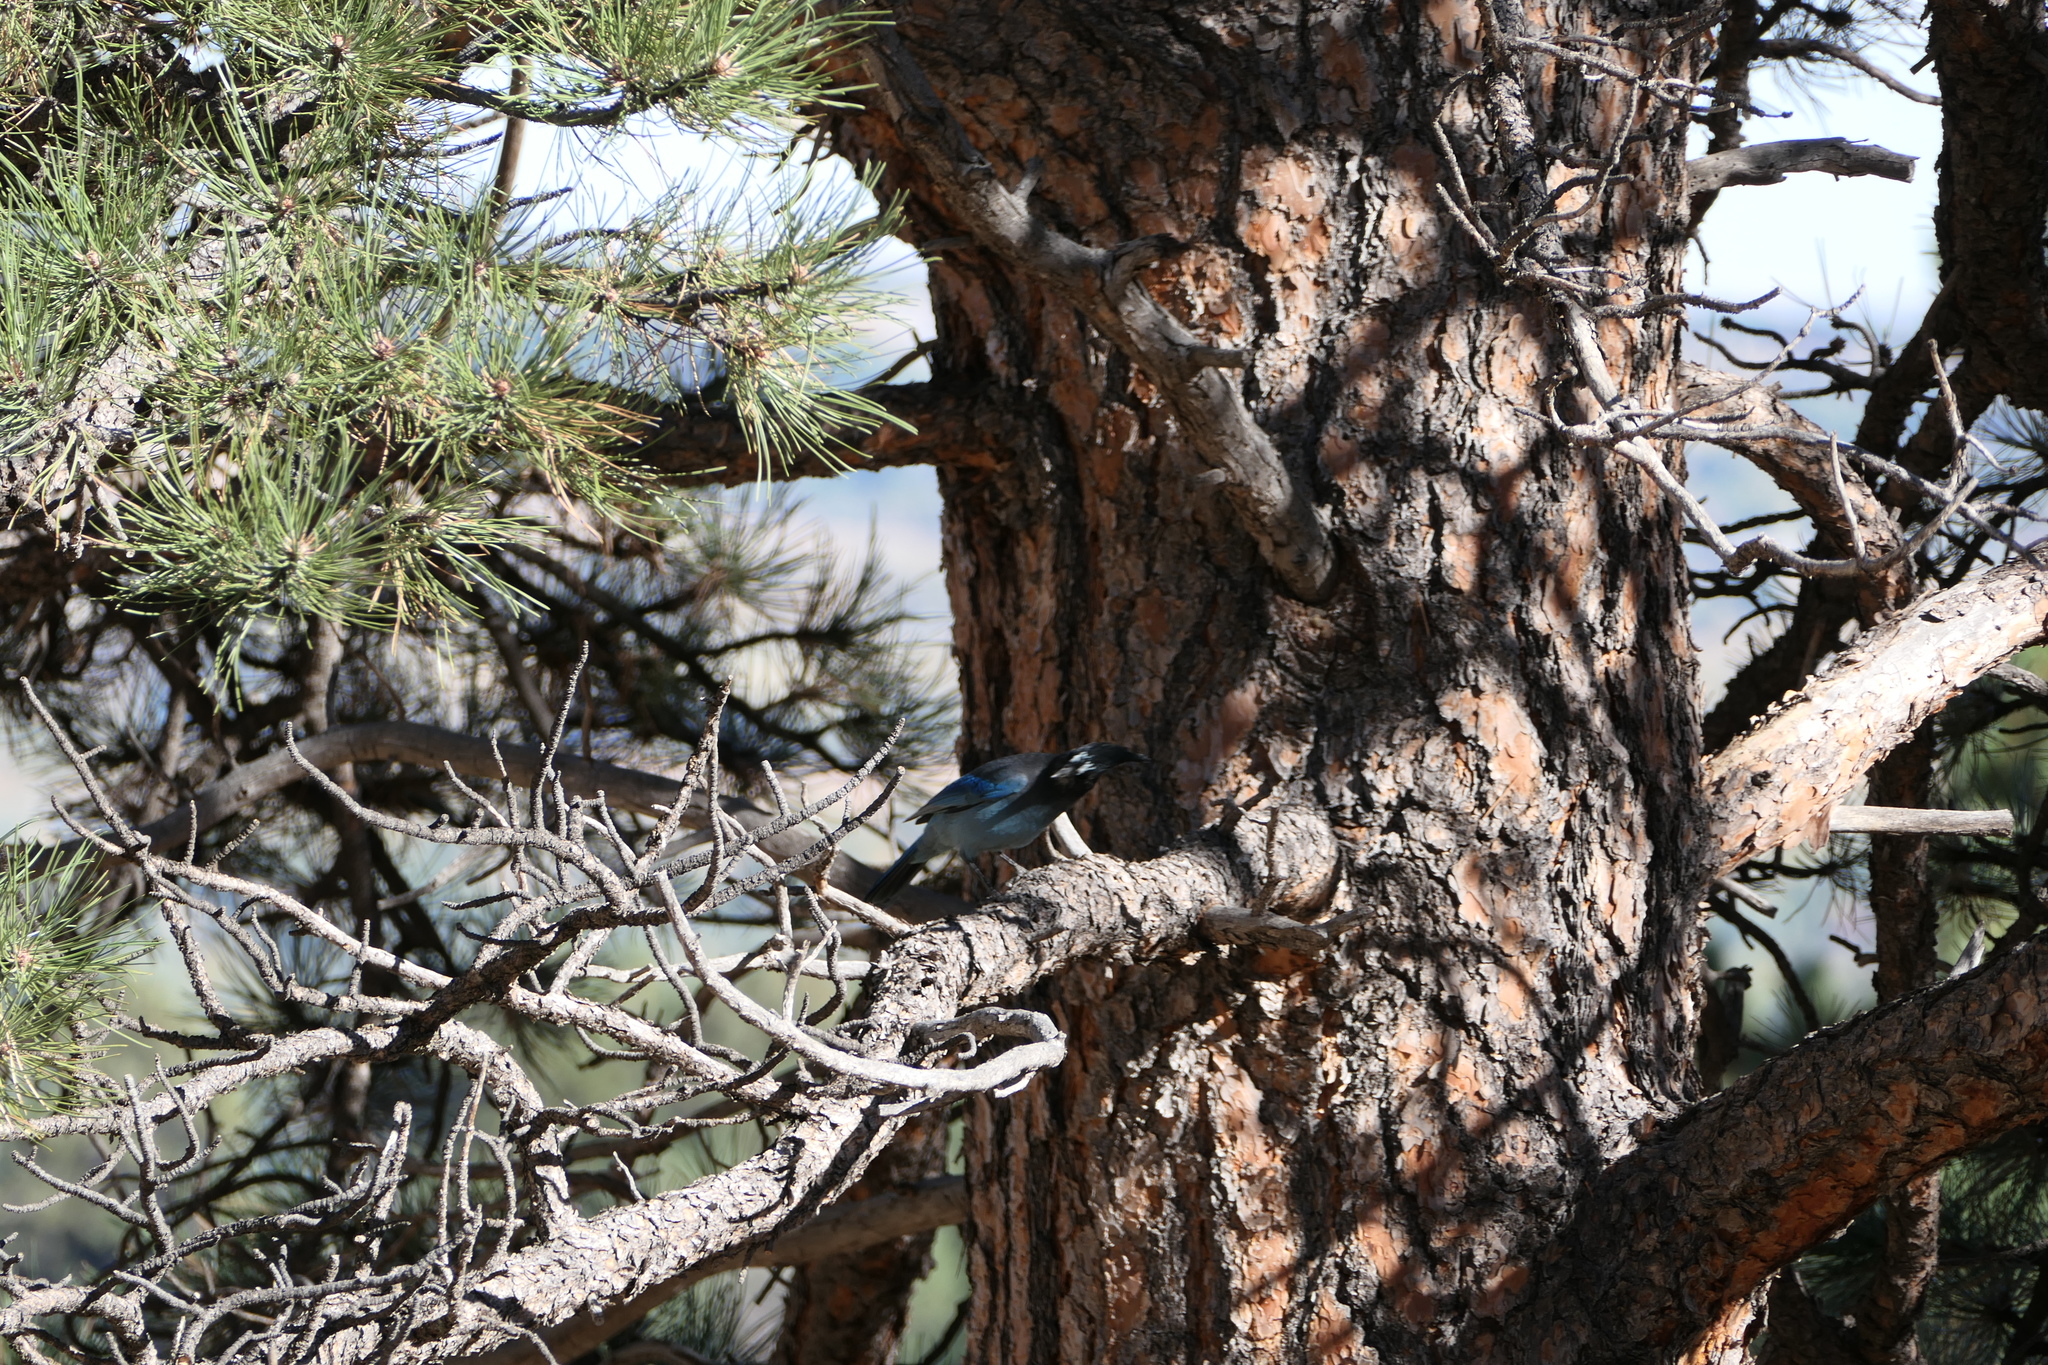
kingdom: Animalia
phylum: Chordata
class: Aves
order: Passeriformes
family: Corvidae
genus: Cyanocitta
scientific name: Cyanocitta stelleri
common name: Steller's jay
